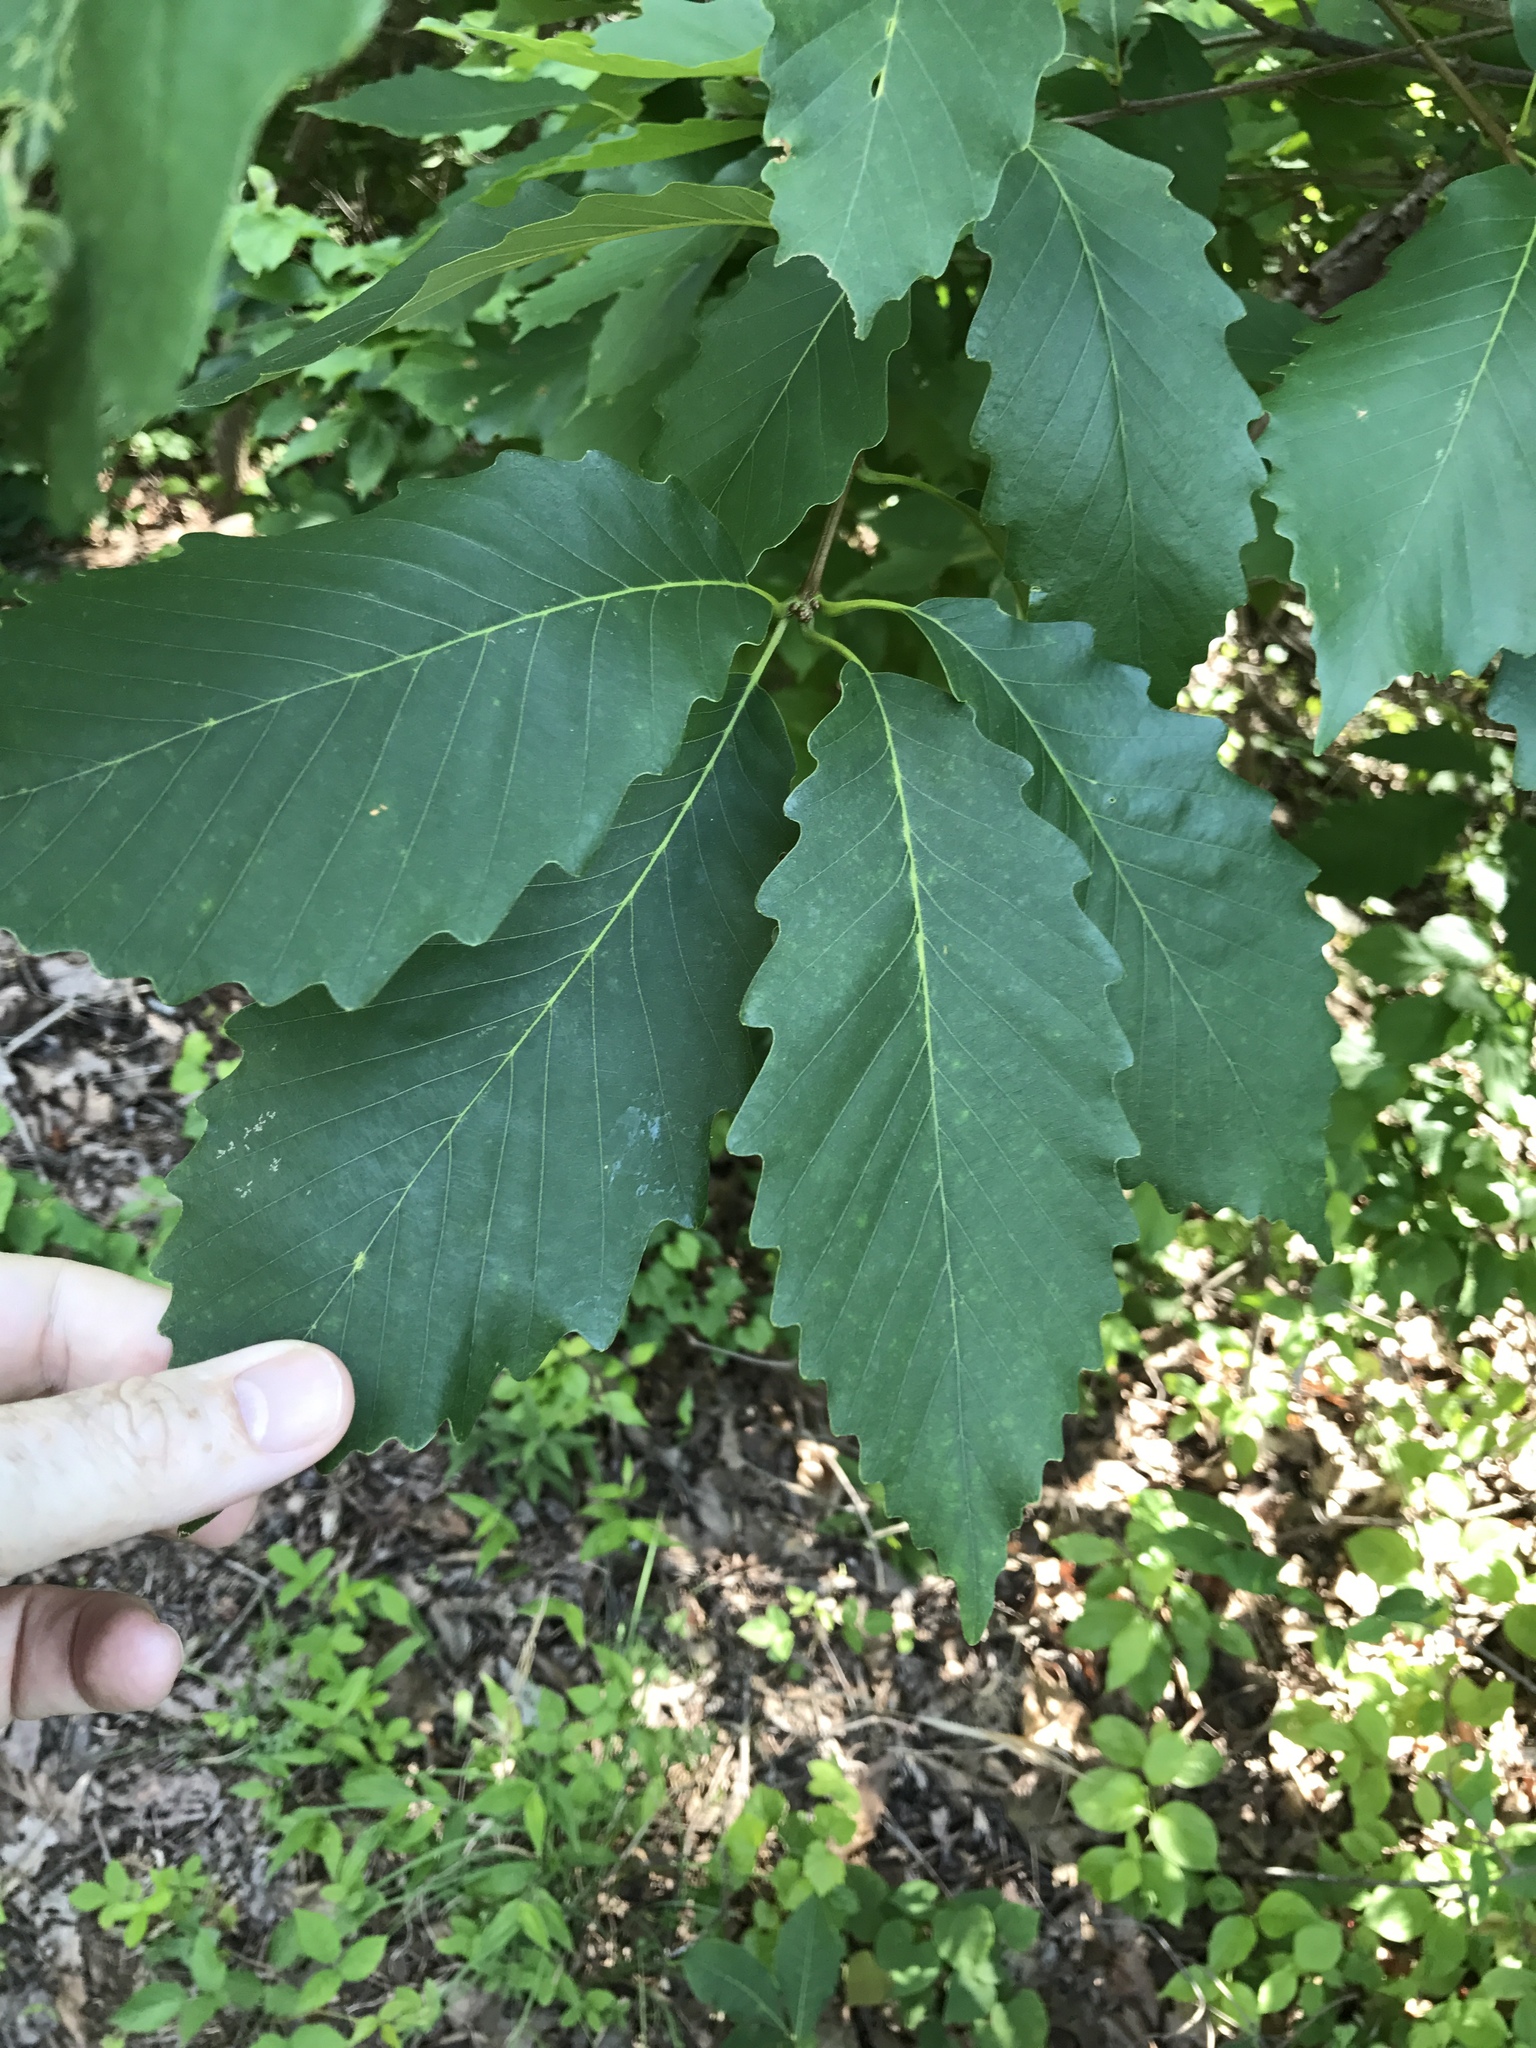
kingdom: Plantae
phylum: Tracheophyta
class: Magnoliopsida
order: Fagales
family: Fagaceae
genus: Quercus
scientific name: Quercus montana
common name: Chestnut oak
